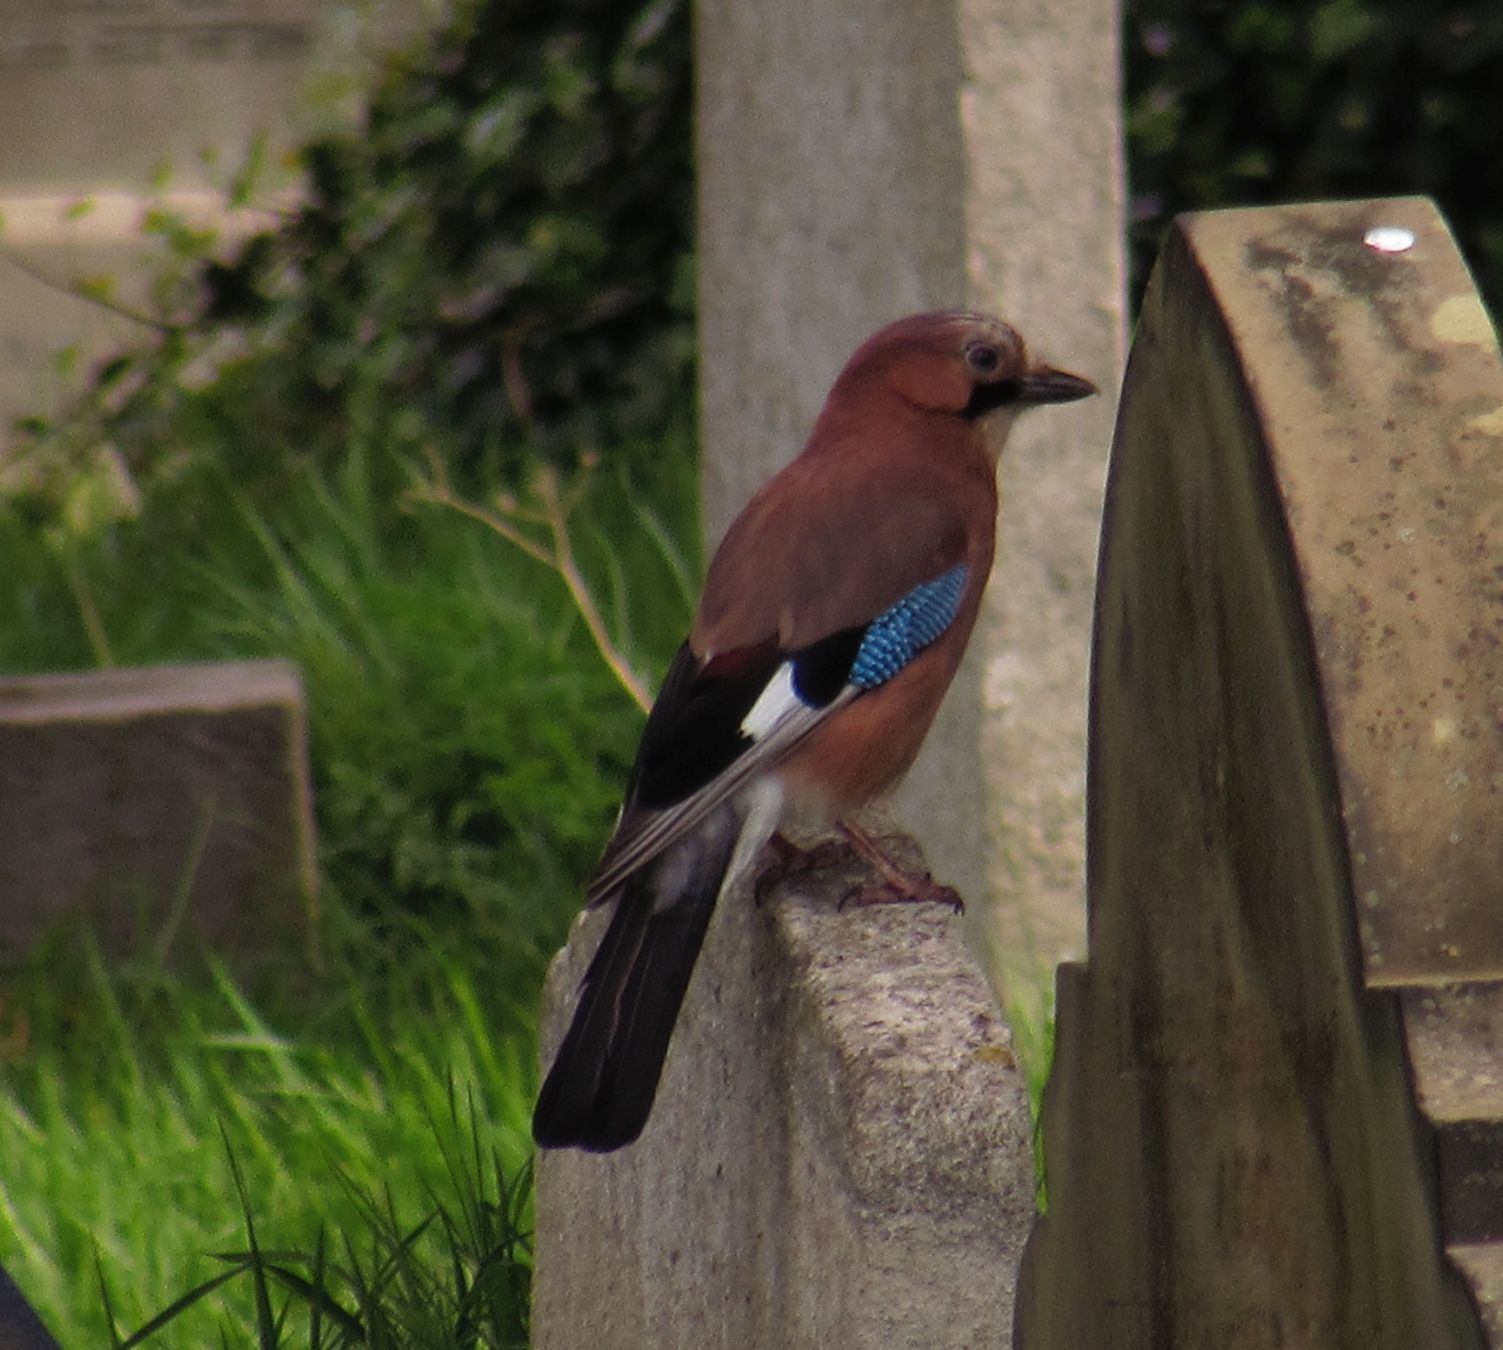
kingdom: Animalia
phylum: Chordata
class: Aves
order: Passeriformes
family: Corvidae
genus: Garrulus
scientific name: Garrulus glandarius
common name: Eurasian jay
